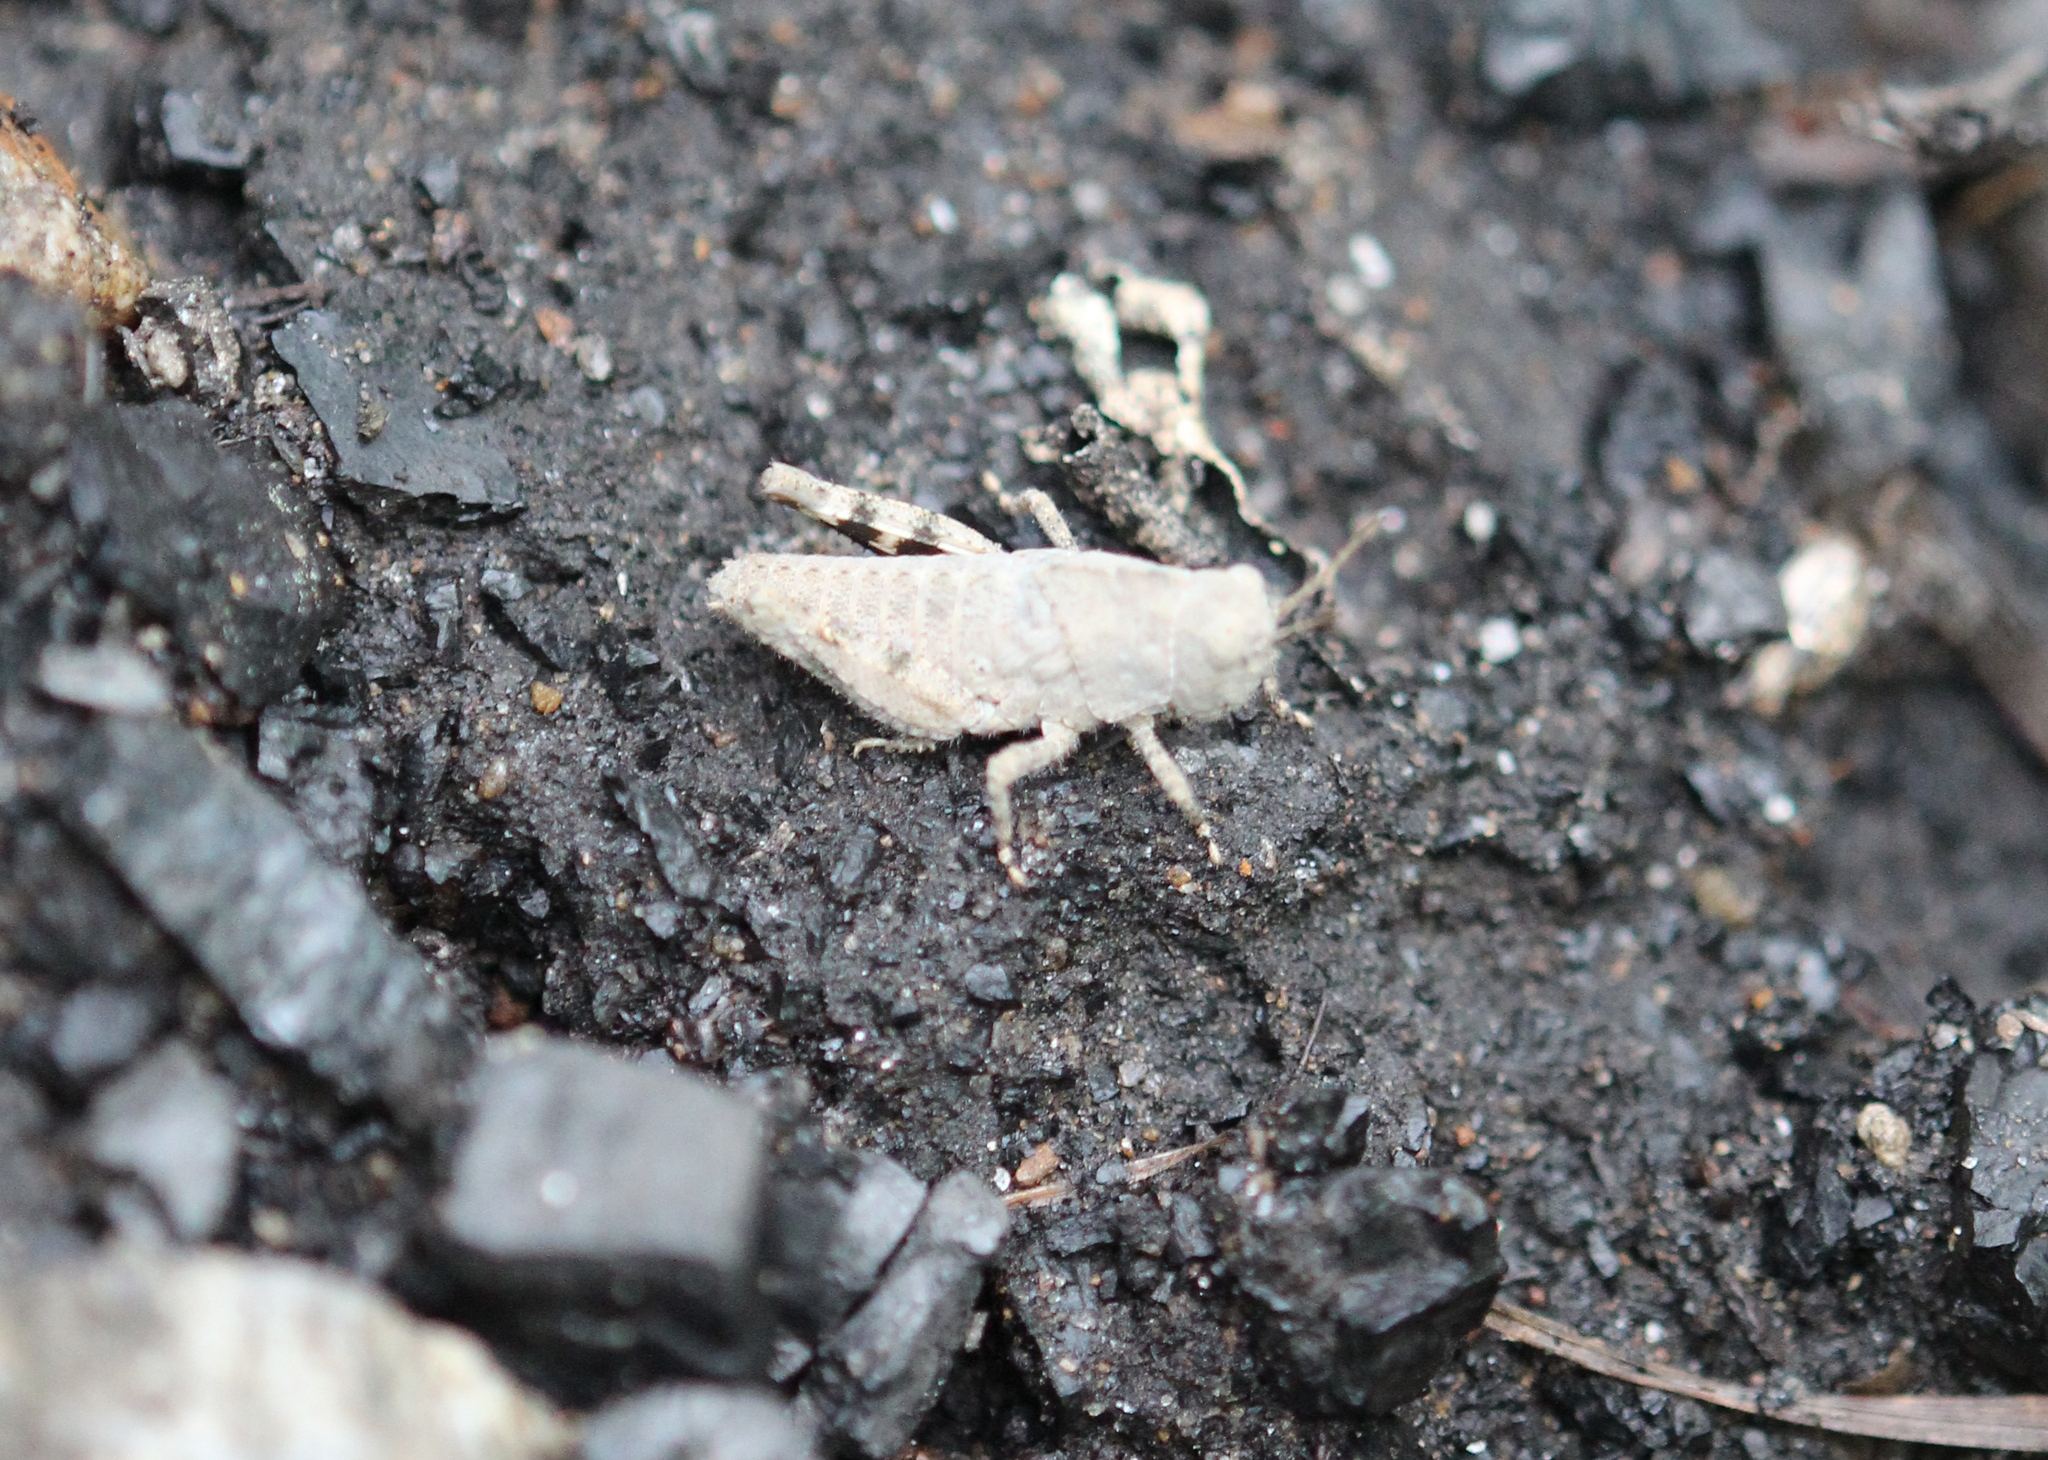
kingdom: Animalia
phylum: Arthropoda
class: Insecta
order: Orthoptera
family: Acrididae
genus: Dissosteira
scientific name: Dissosteira carolina
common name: Carolina grasshopper
